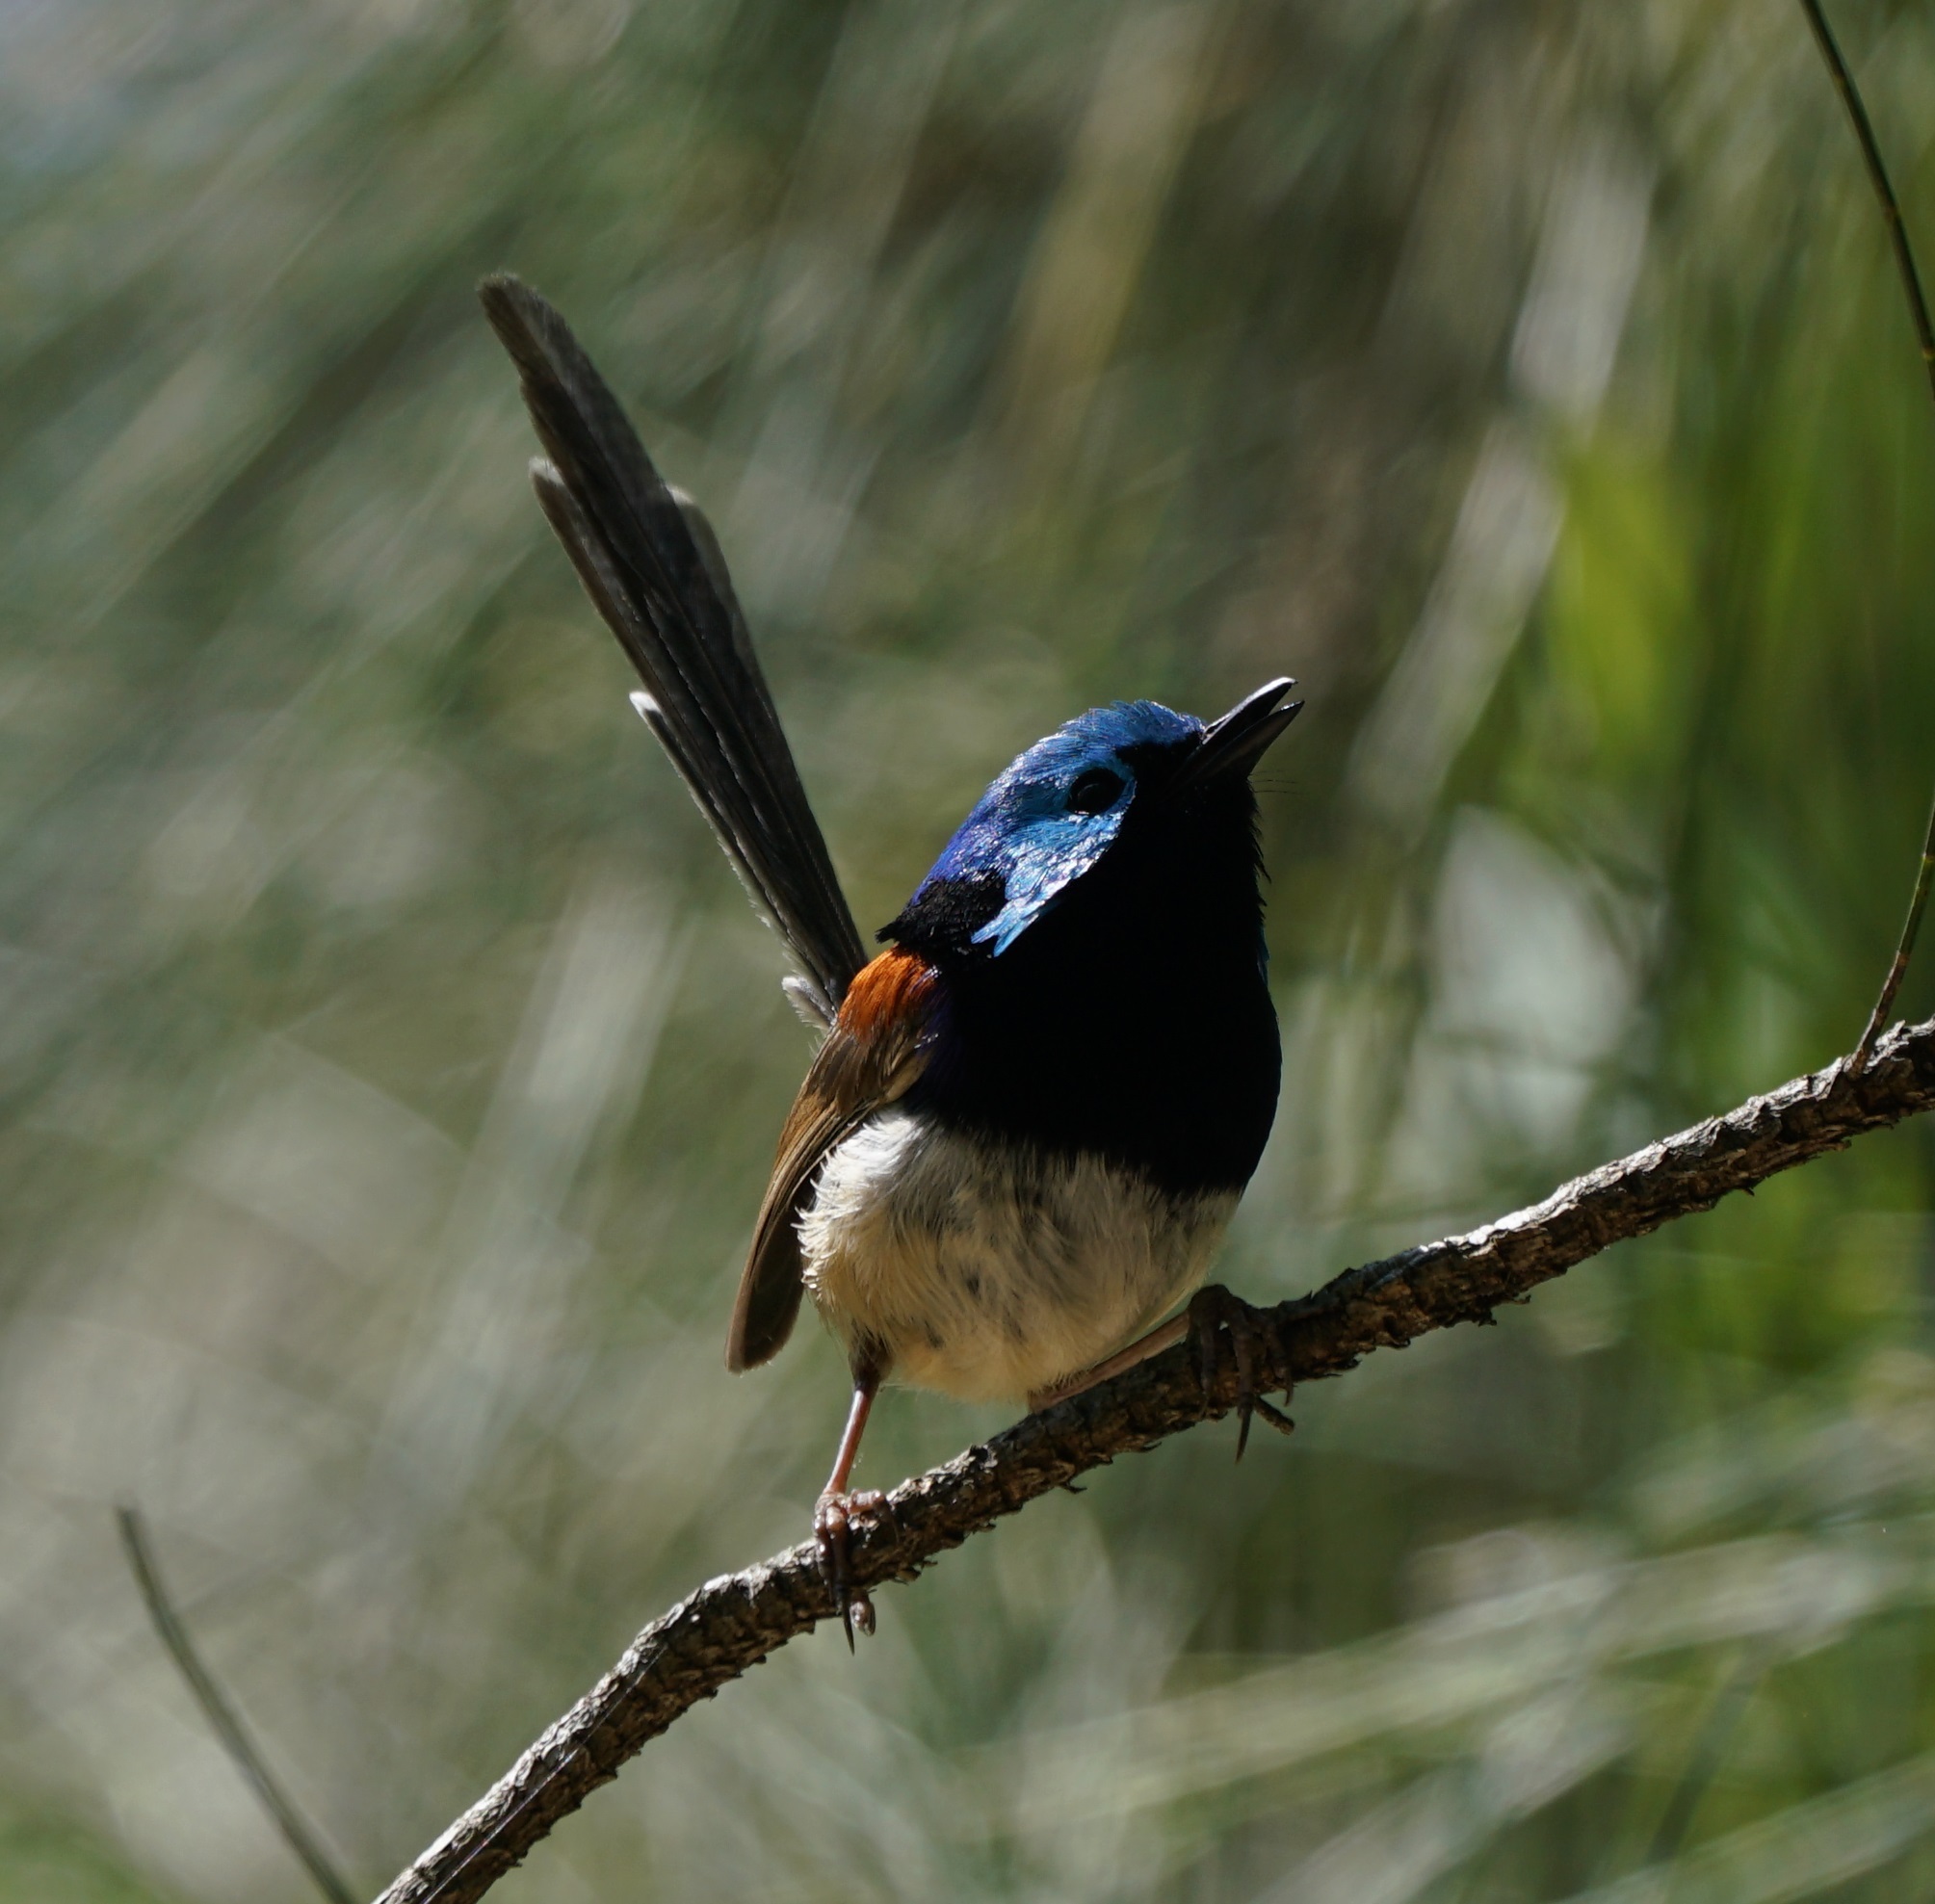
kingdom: Animalia
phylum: Chordata
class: Aves
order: Passeriformes
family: Maluridae
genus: Malurus
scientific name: Malurus lamberti
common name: Variegated fairywren
